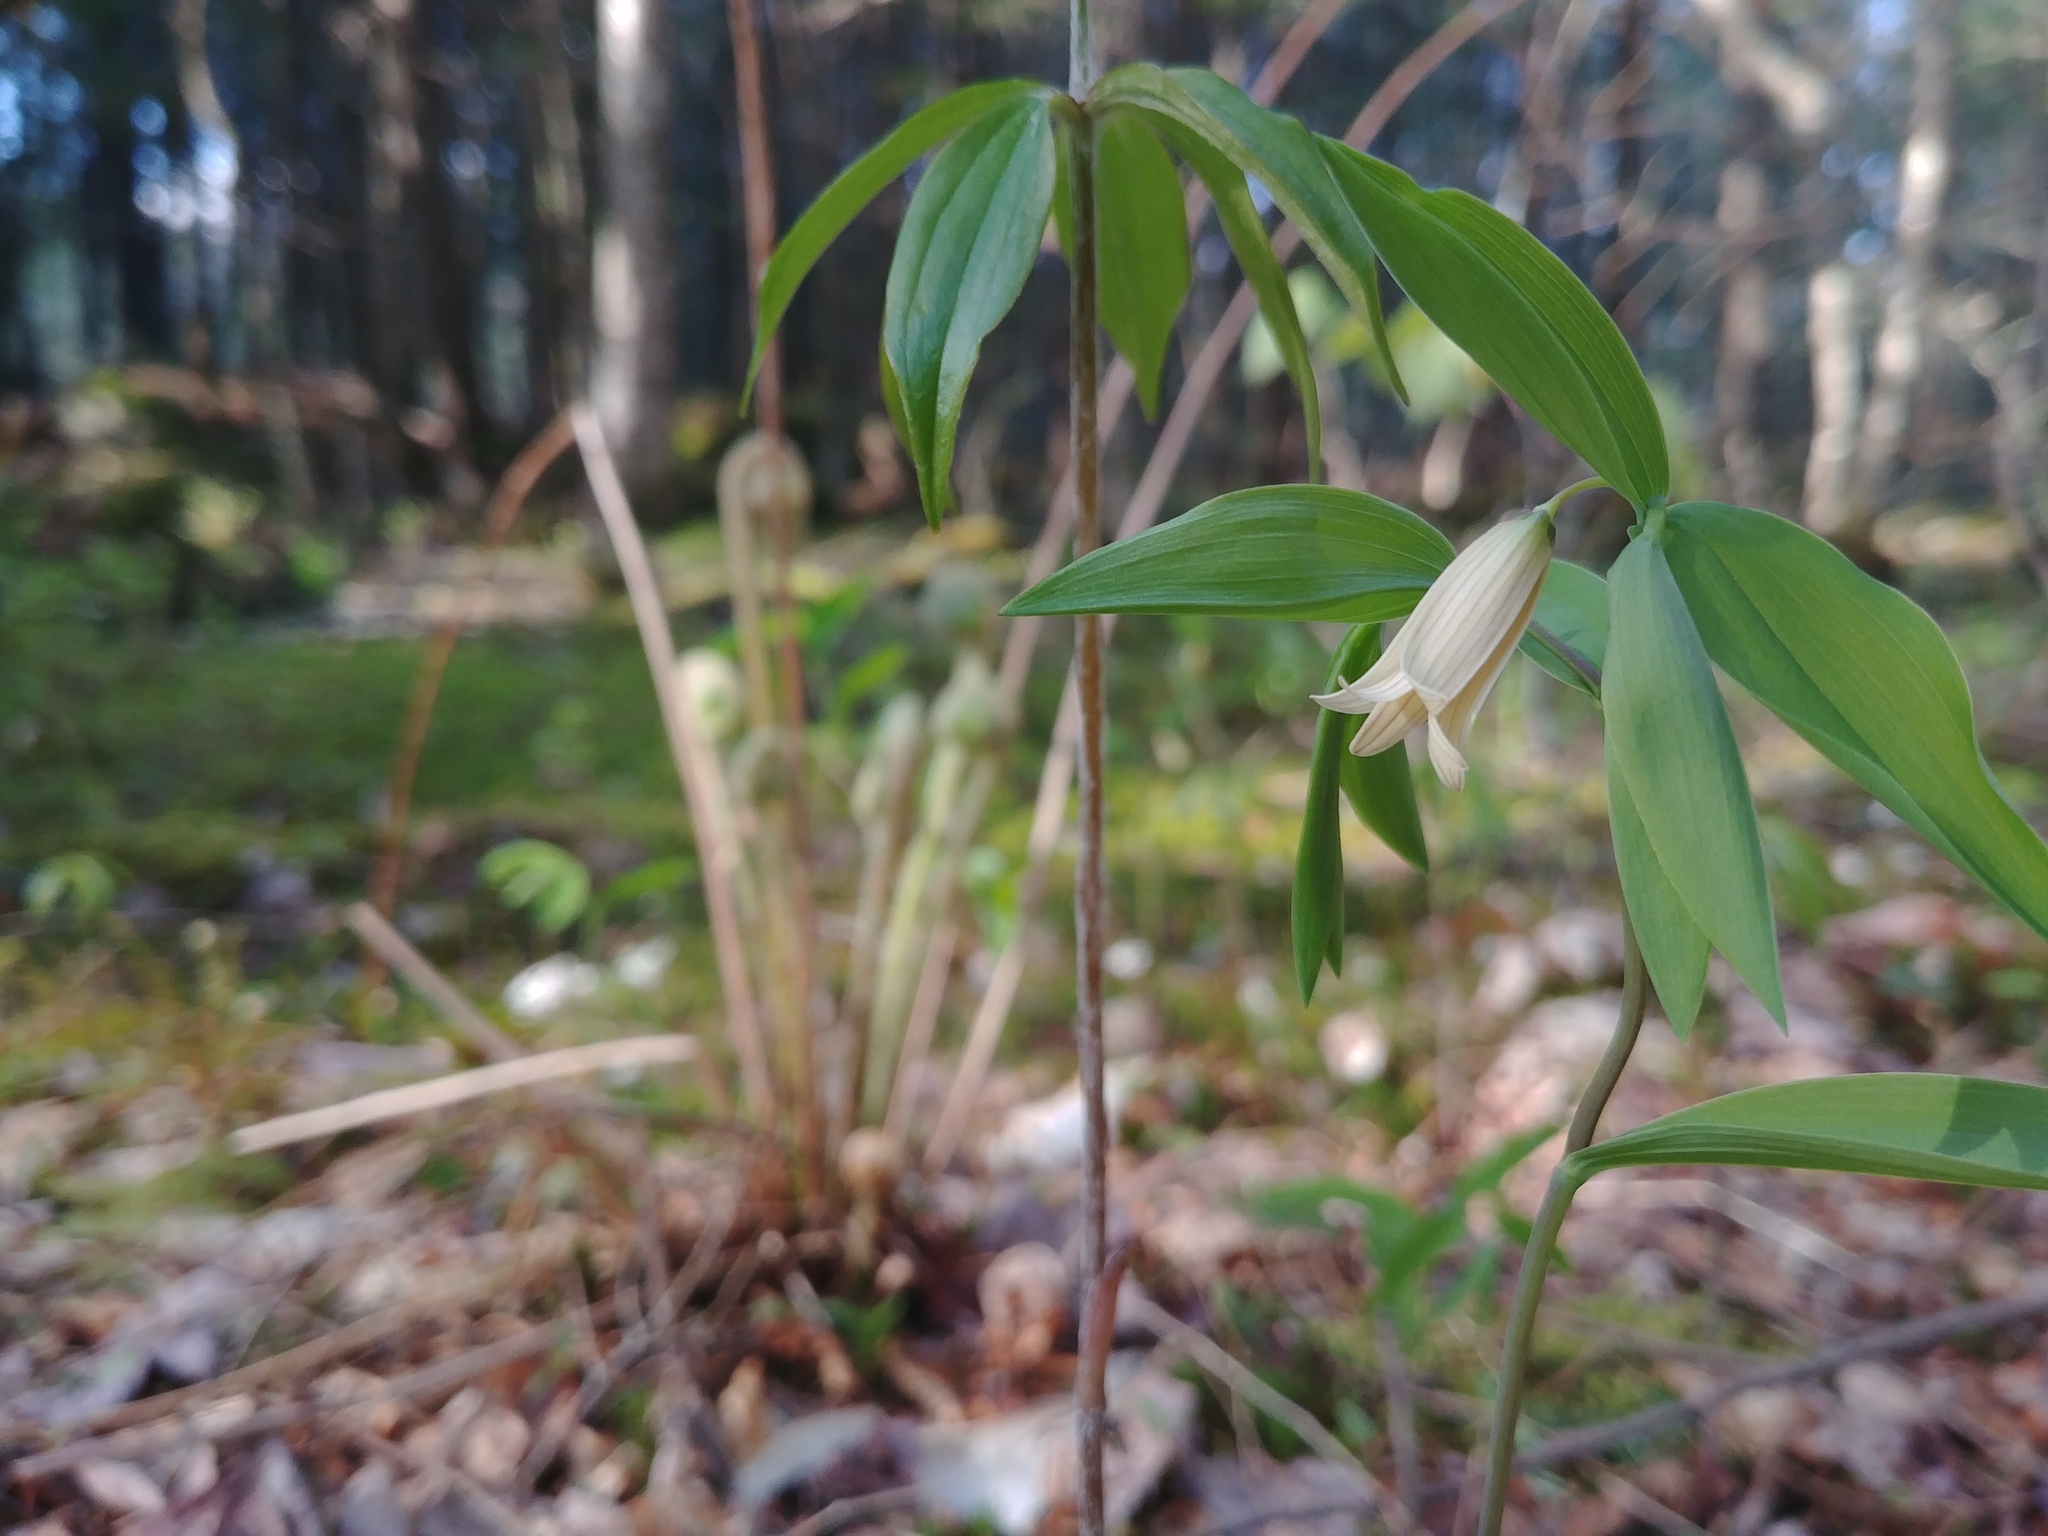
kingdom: Plantae
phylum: Tracheophyta
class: Liliopsida
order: Liliales
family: Colchicaceae
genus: Uvularia
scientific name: Uvularia sessilifolia
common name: Straw-lily
